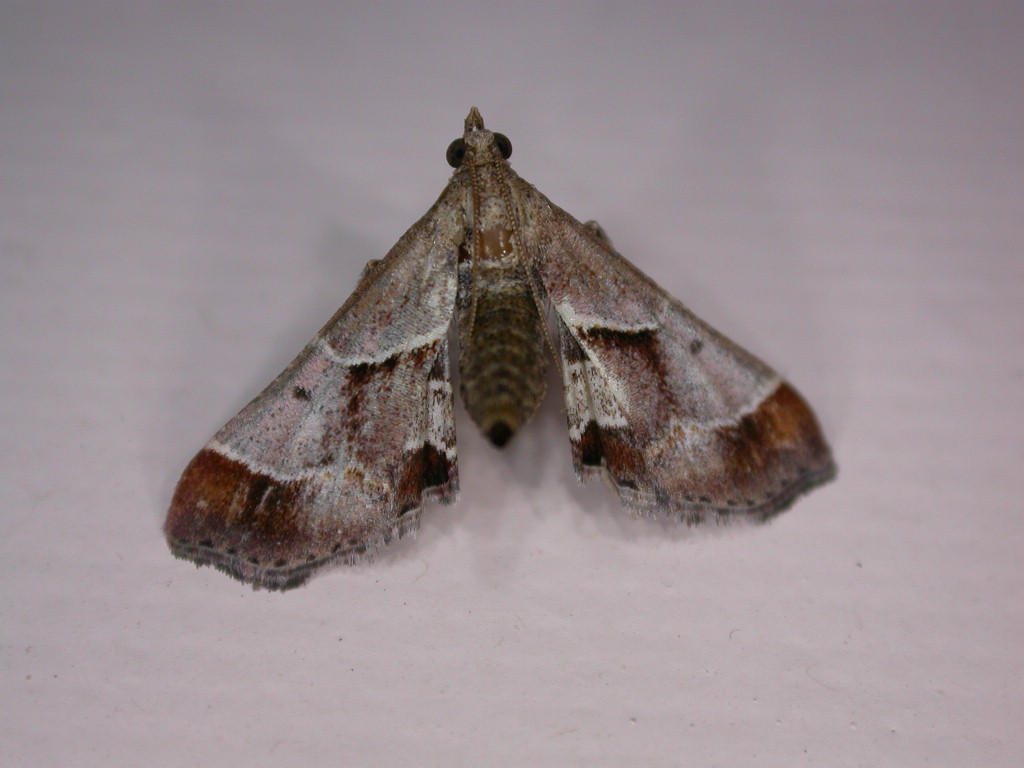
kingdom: Animalia
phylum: Arthropoda
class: Insecta
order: Lepidoptera
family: Pyralidae
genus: Gauna
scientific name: Gauna aegusalis
